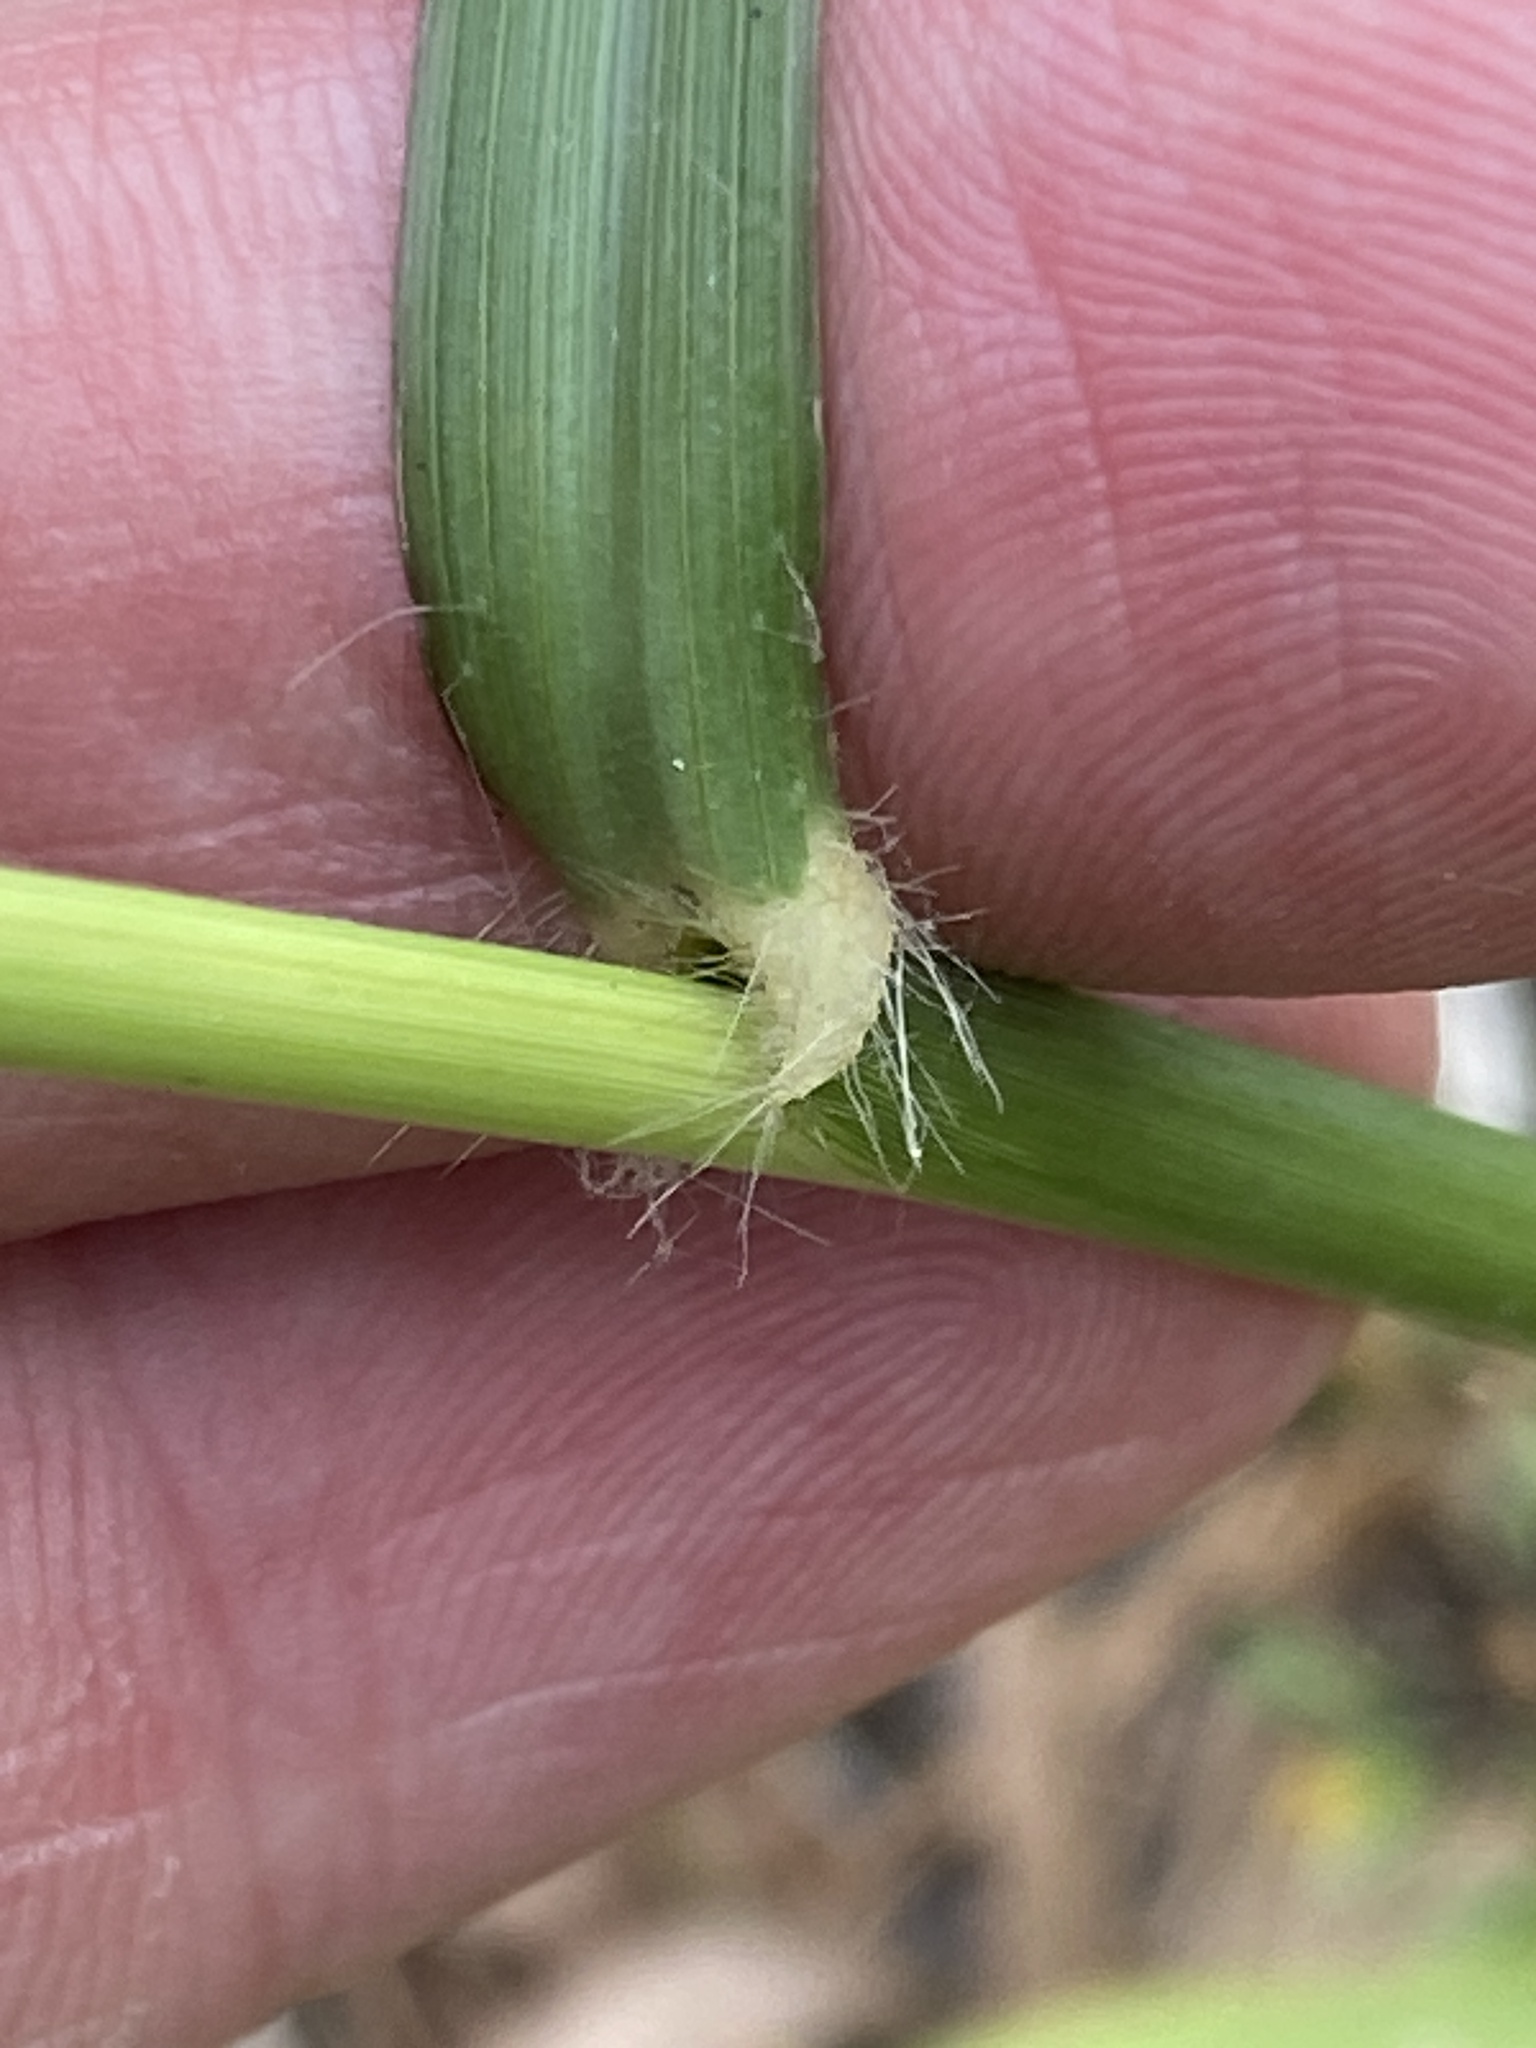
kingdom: Plantae
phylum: Tracheophyta
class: Liliopsida
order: Poales
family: Poaceae
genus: Chloris
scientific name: Chloris gayana
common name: Rhodes grass
